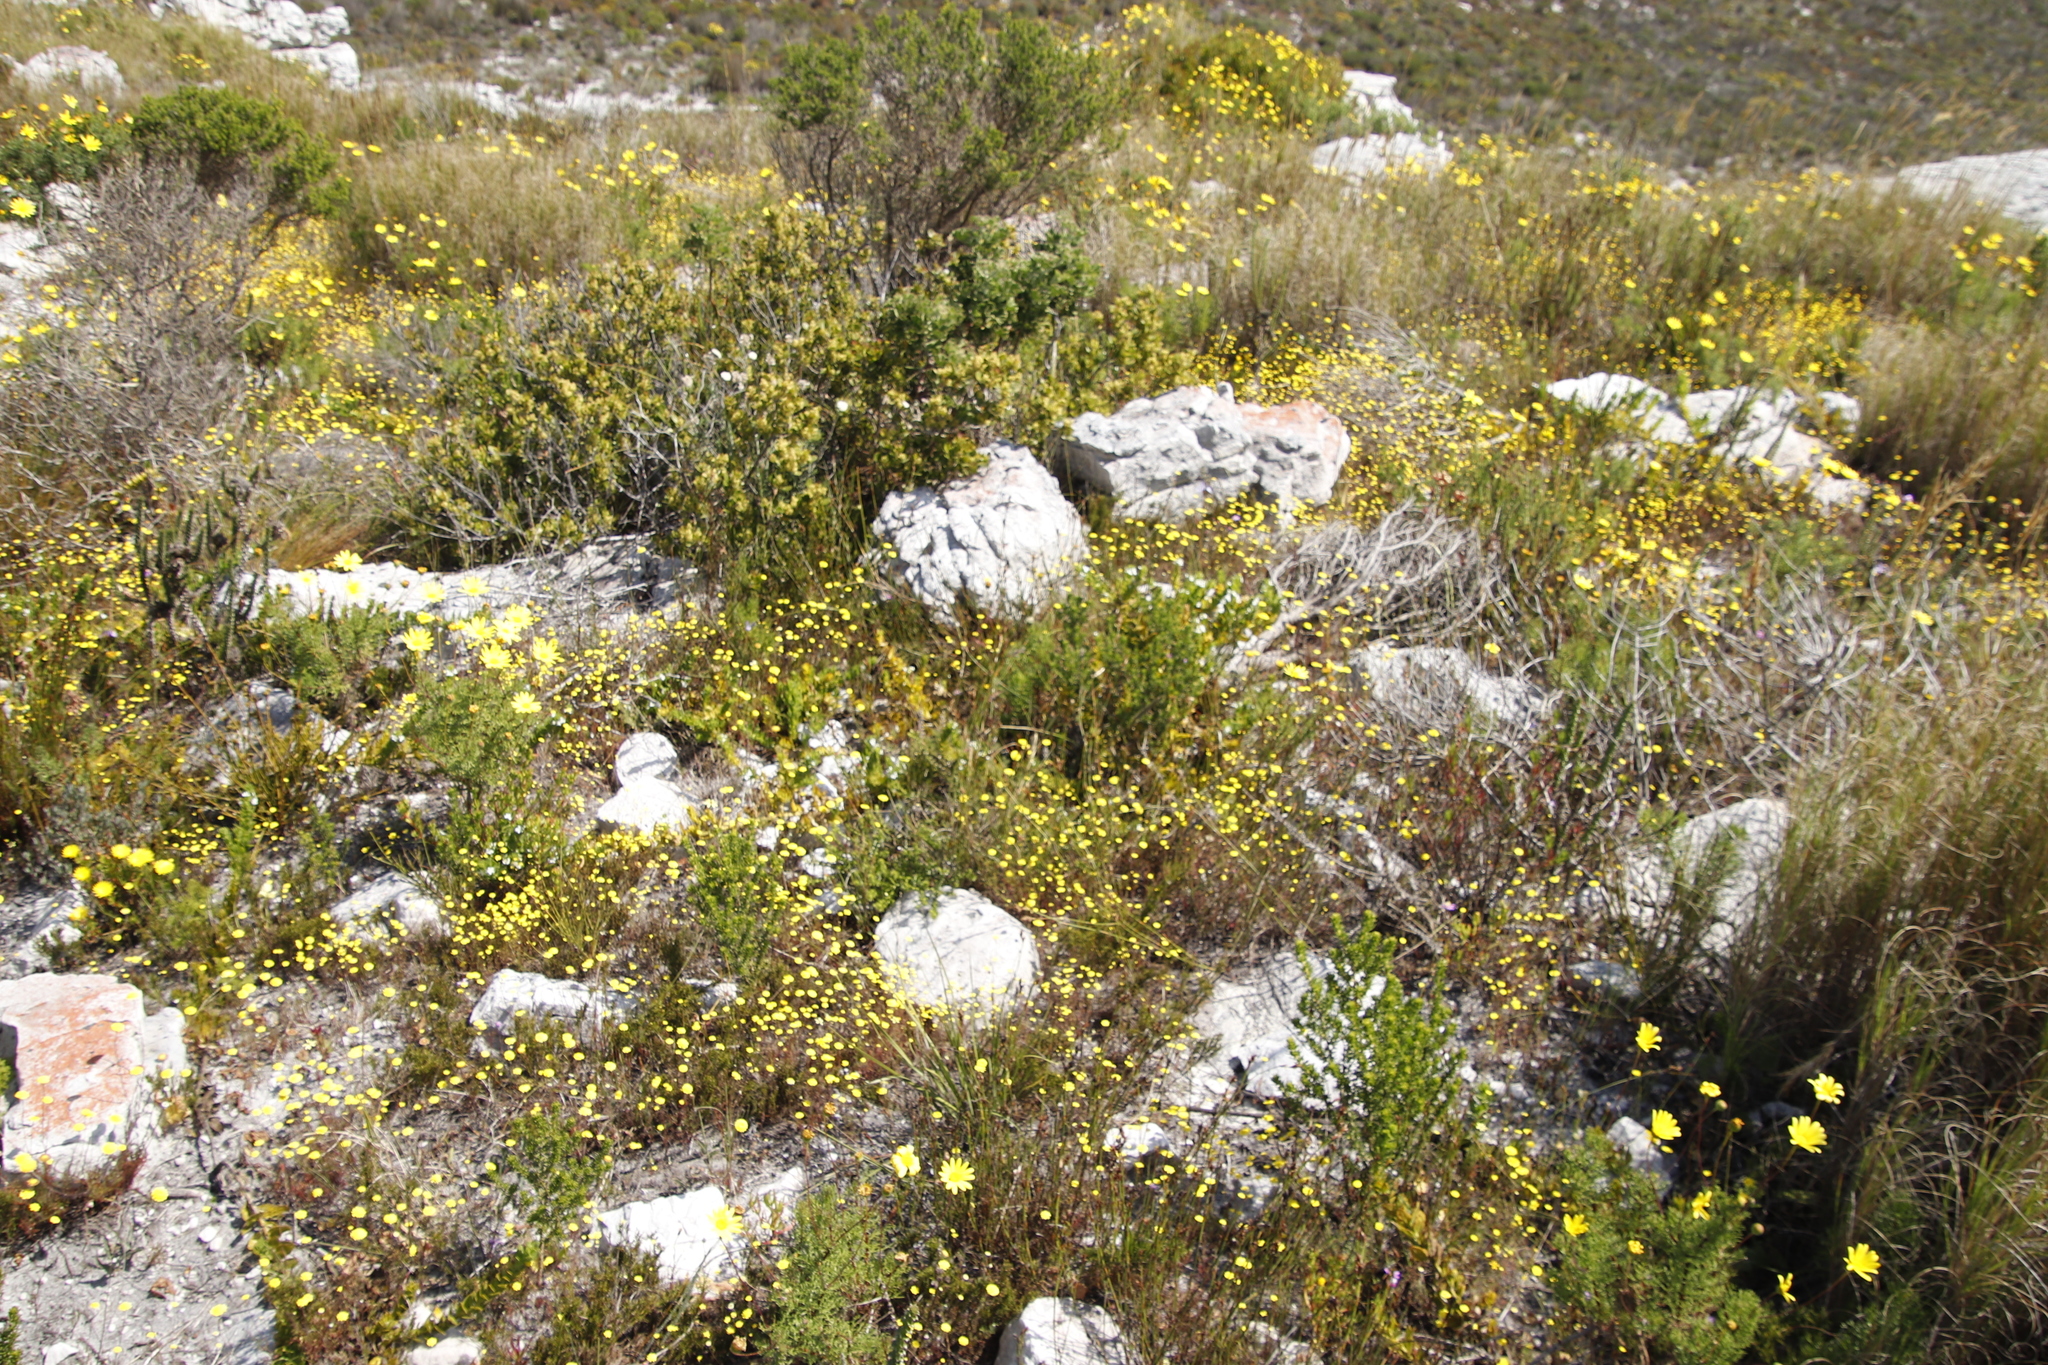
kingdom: Plantae
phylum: Tracheophyta
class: Magnoliopsida
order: Asterales
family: Asteraceae
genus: Cotula
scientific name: Cotula pruinosa
